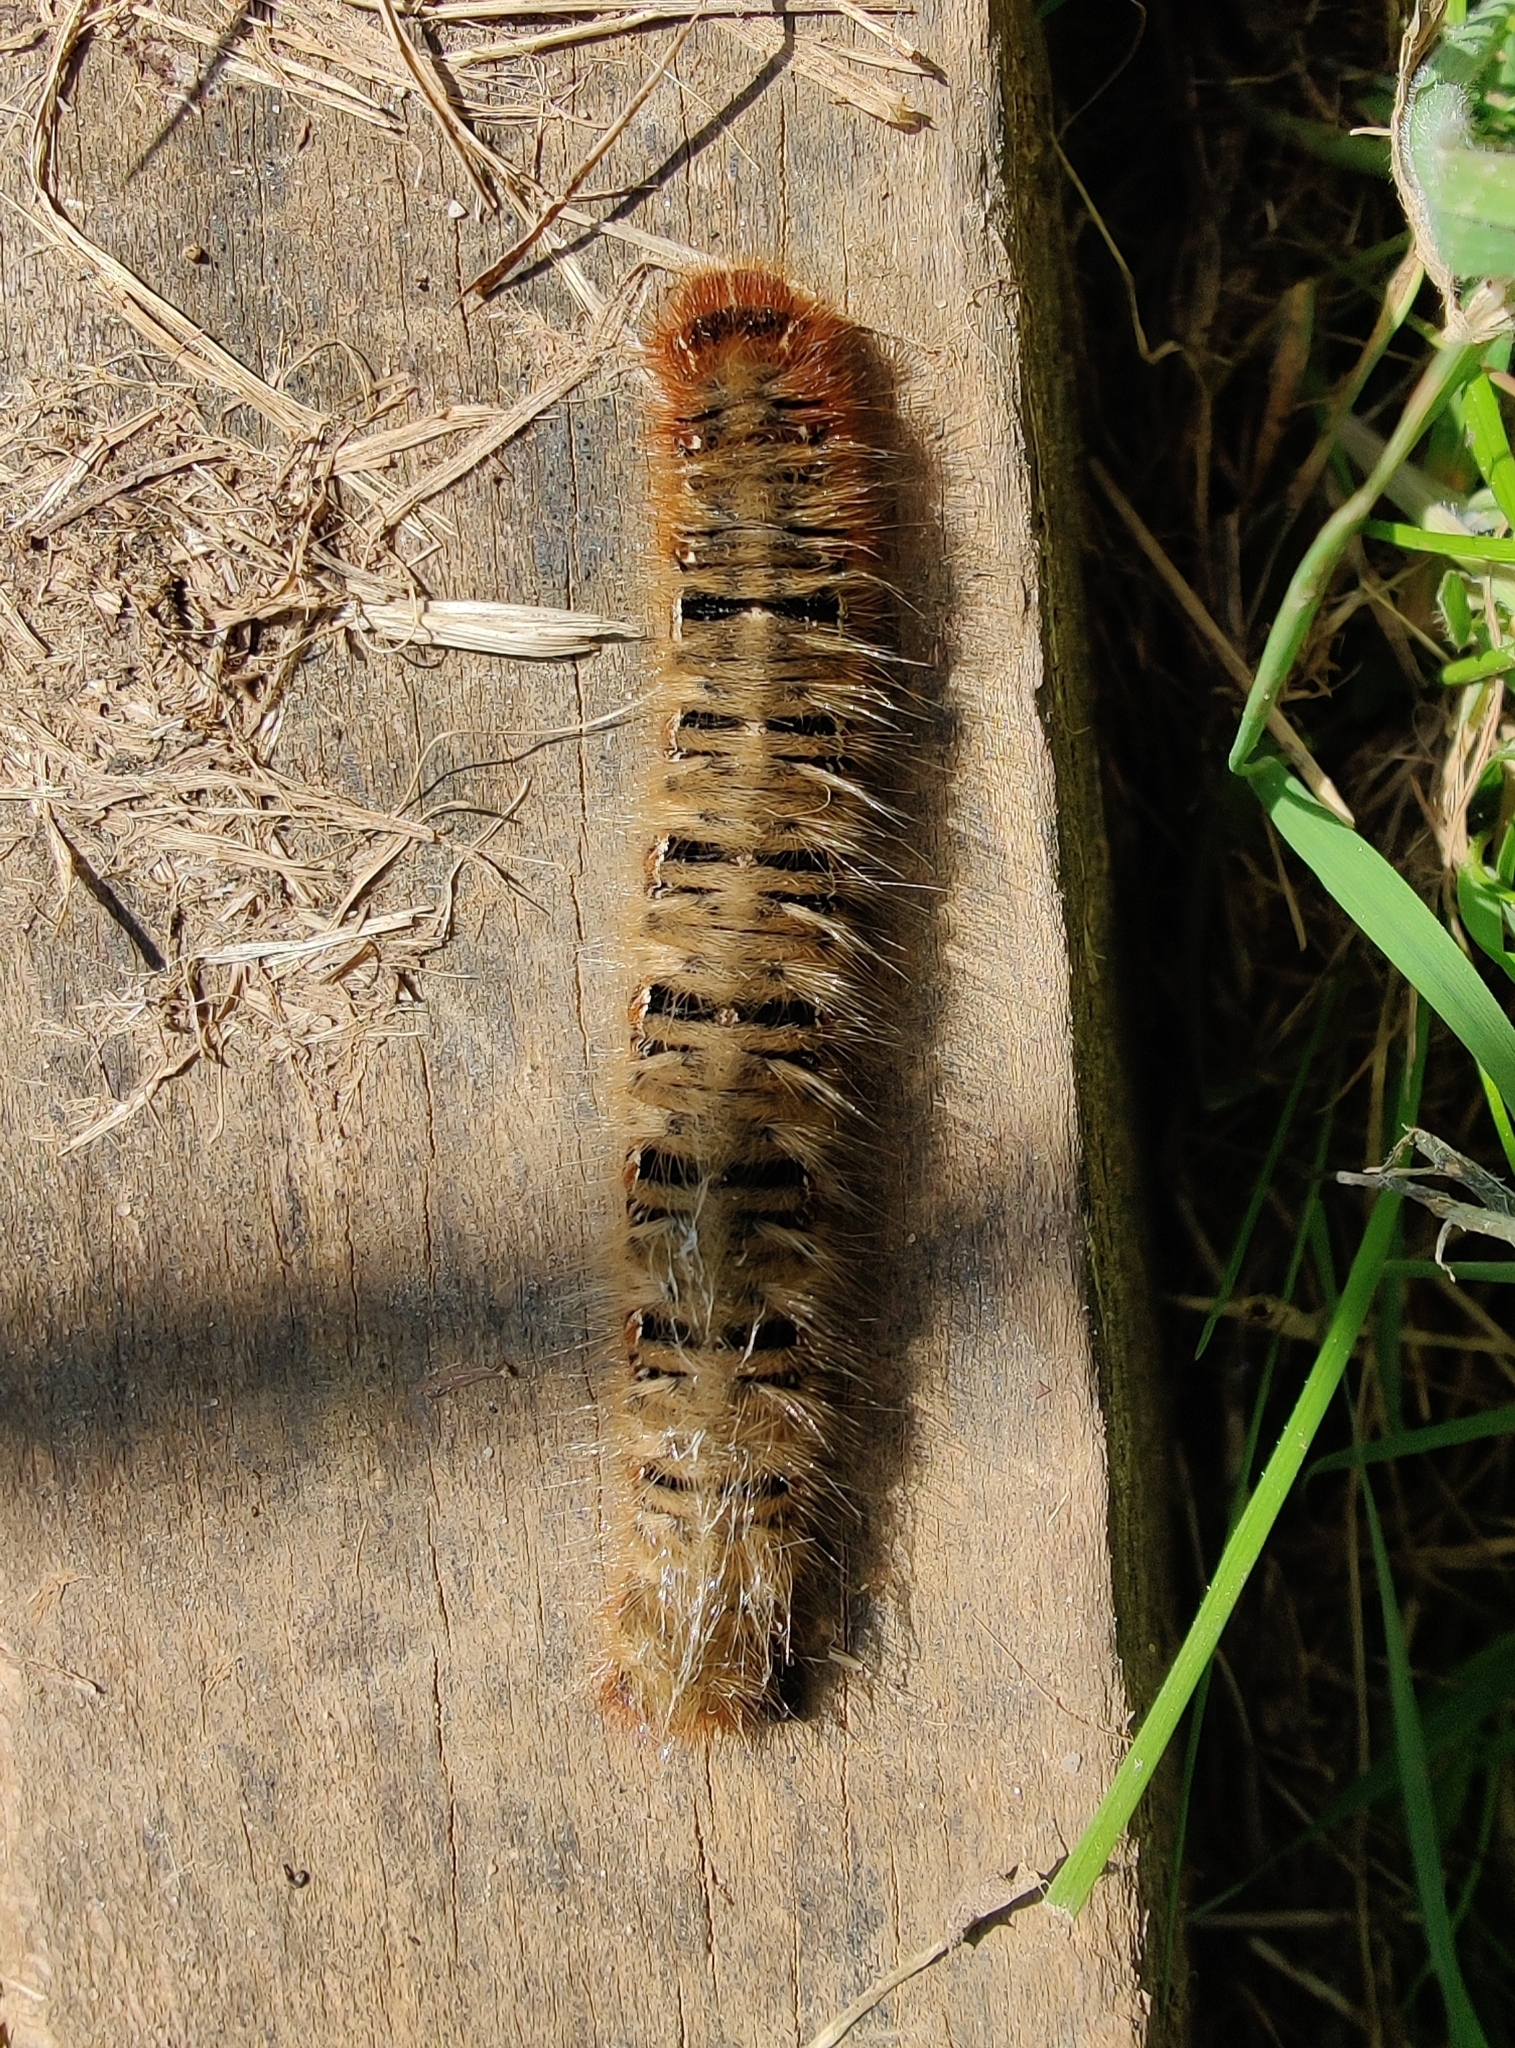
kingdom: Animalia
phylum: Arthropoda
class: Insecta
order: Lepidoptera
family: Lasiocampidae
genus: Lasiocampa
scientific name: Lasiocampa quercus
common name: Oak eggar
